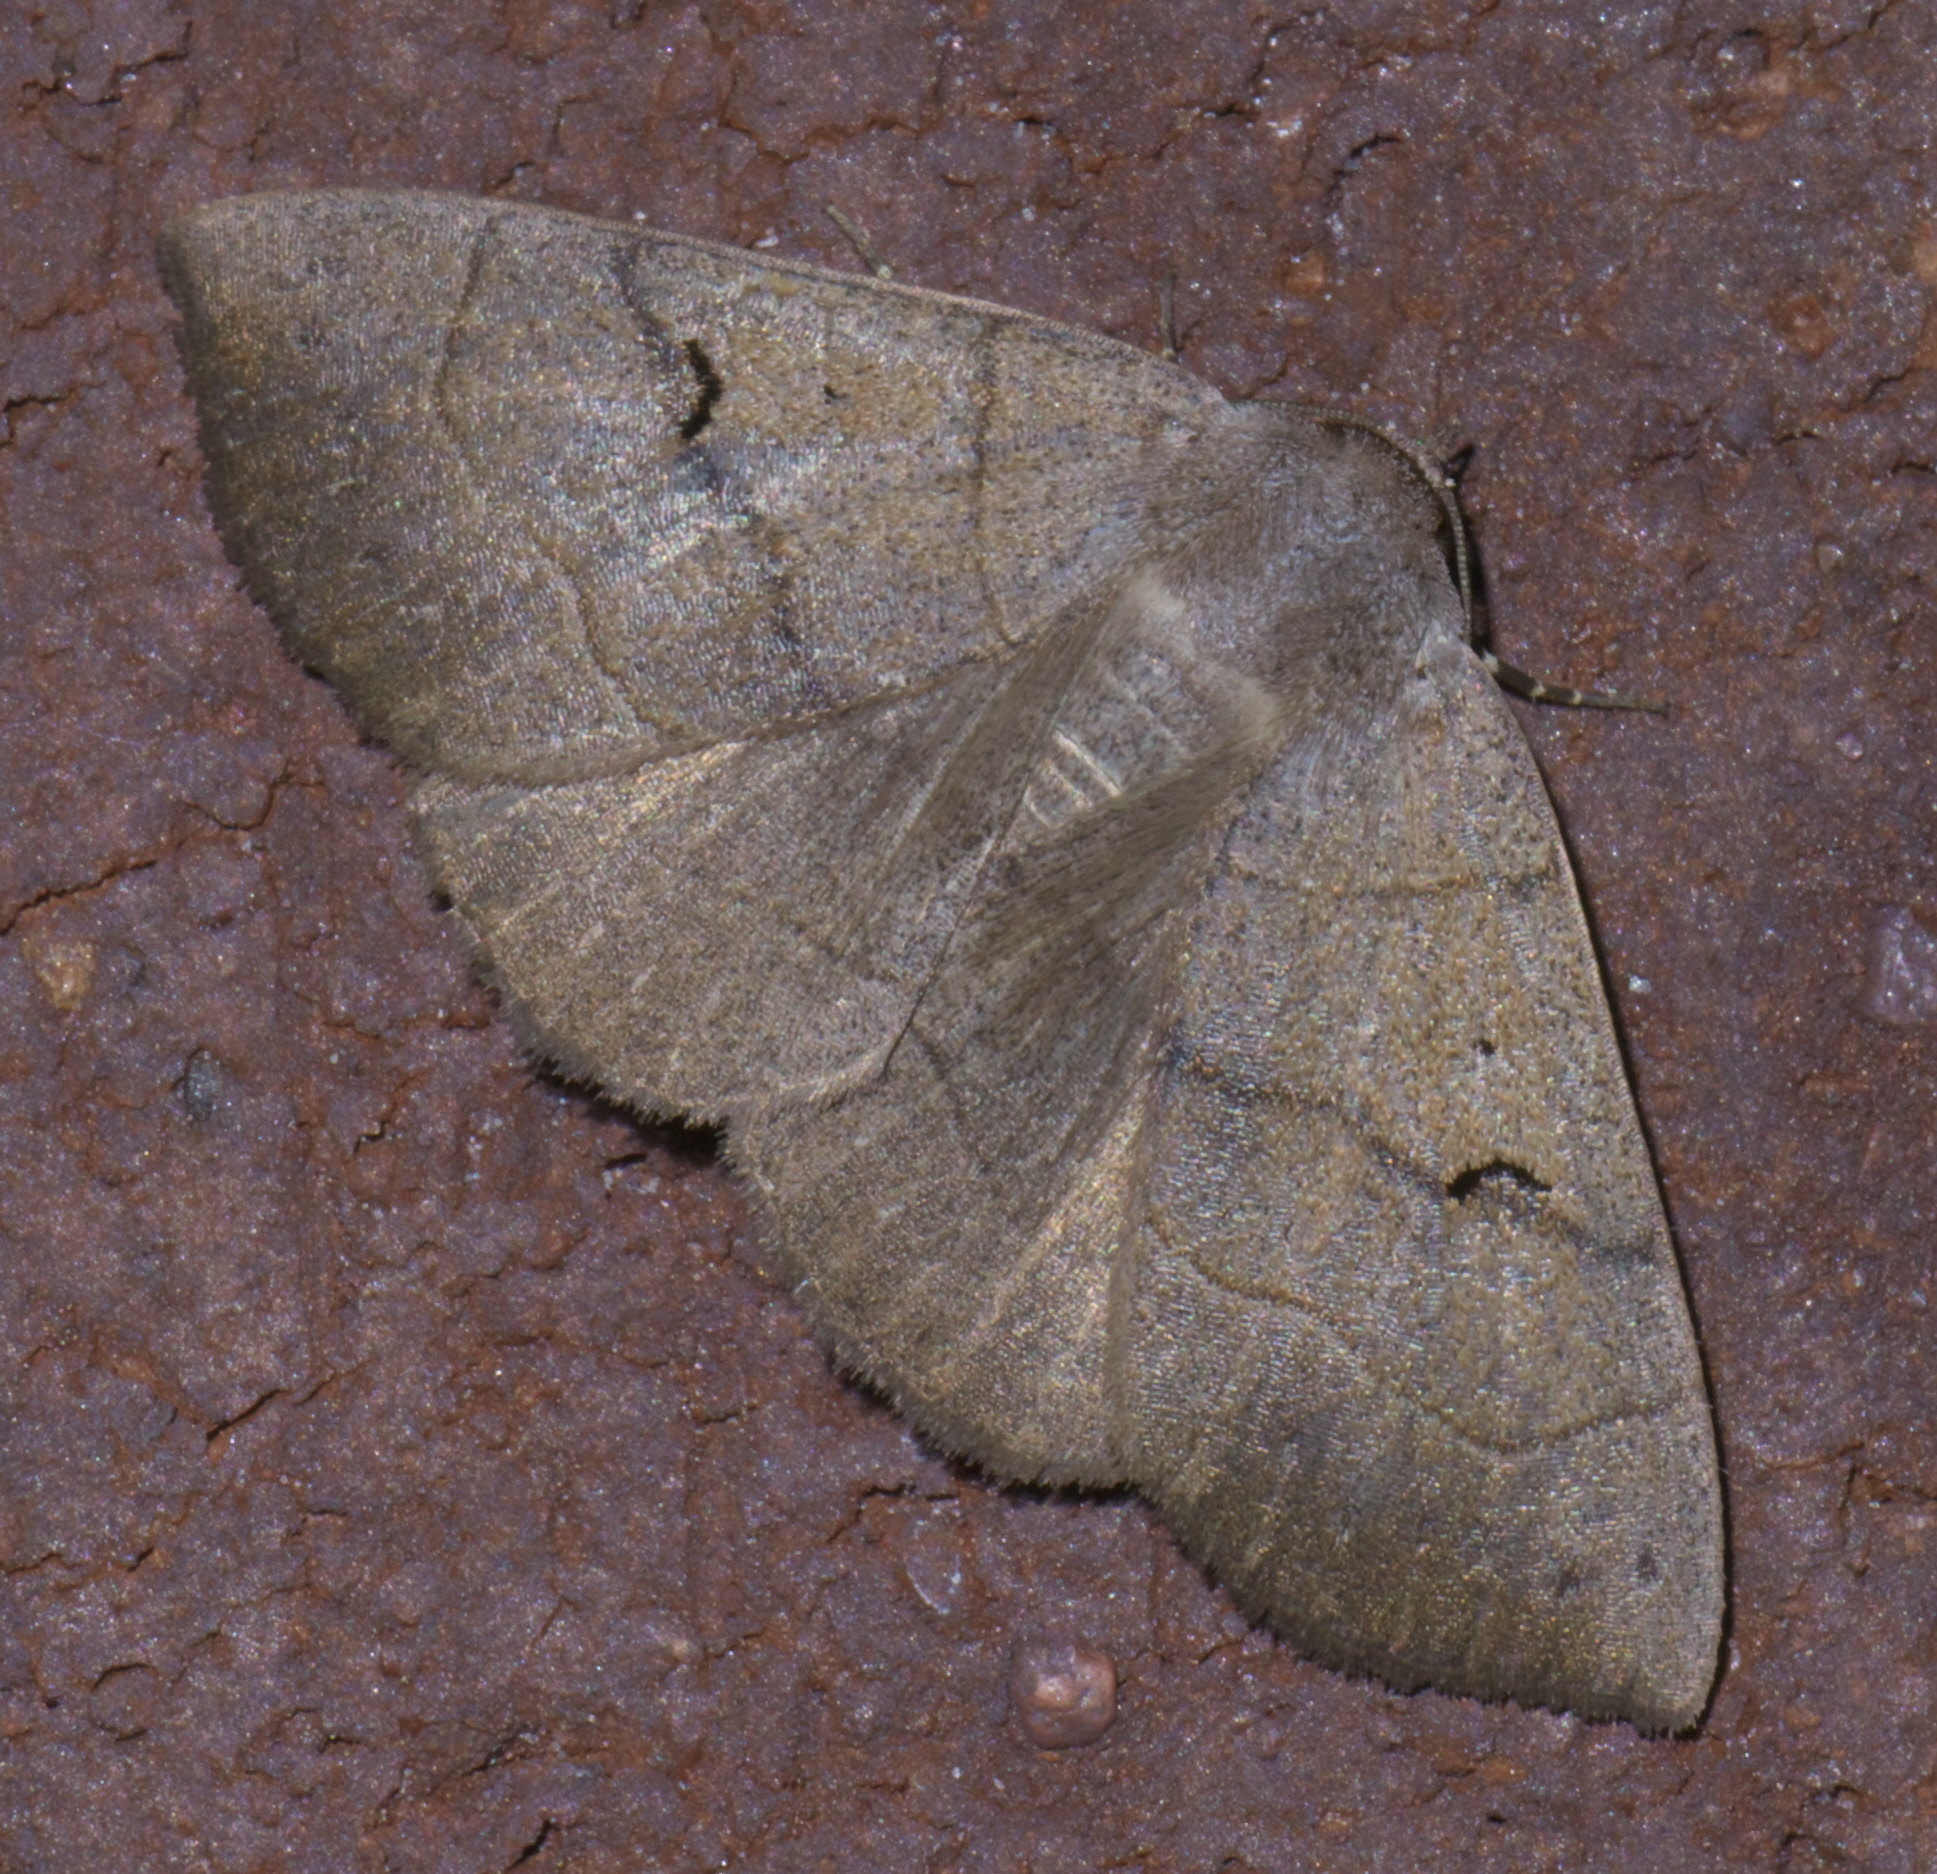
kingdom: Animalia
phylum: Arthropoda
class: Insecta
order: Lepidoptera
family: Erebidae
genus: Panopoda
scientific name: Panopoda carneicosta
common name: Brown panopoda moth
